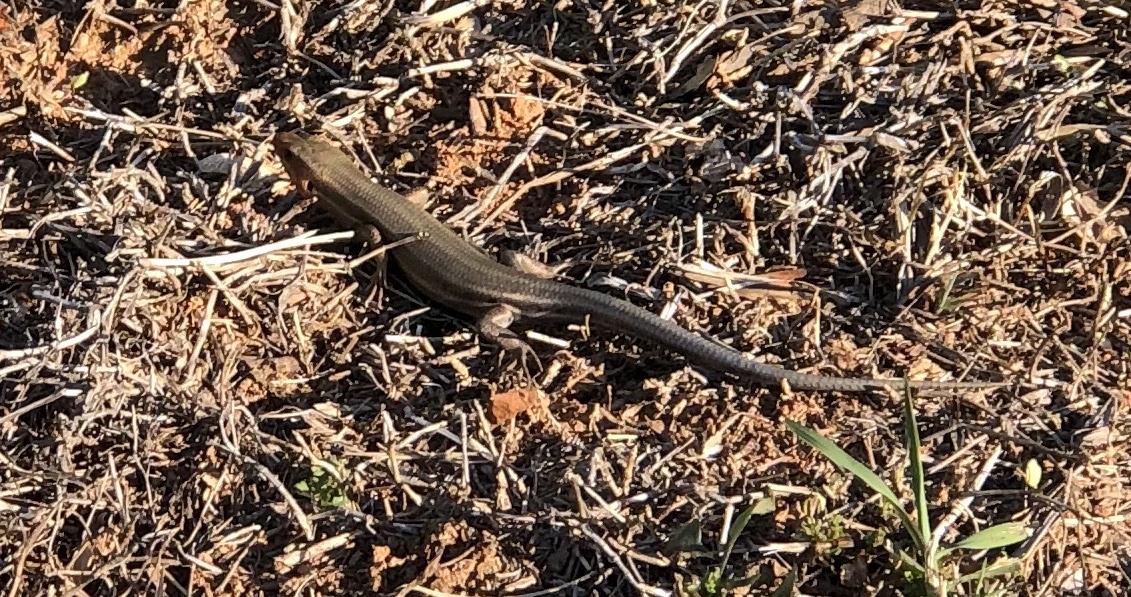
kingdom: Animalia
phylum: Chordata
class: Squamata
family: Scincidae
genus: Plestiodon
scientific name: Plestiodon fasciatus
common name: Five-lined skink
